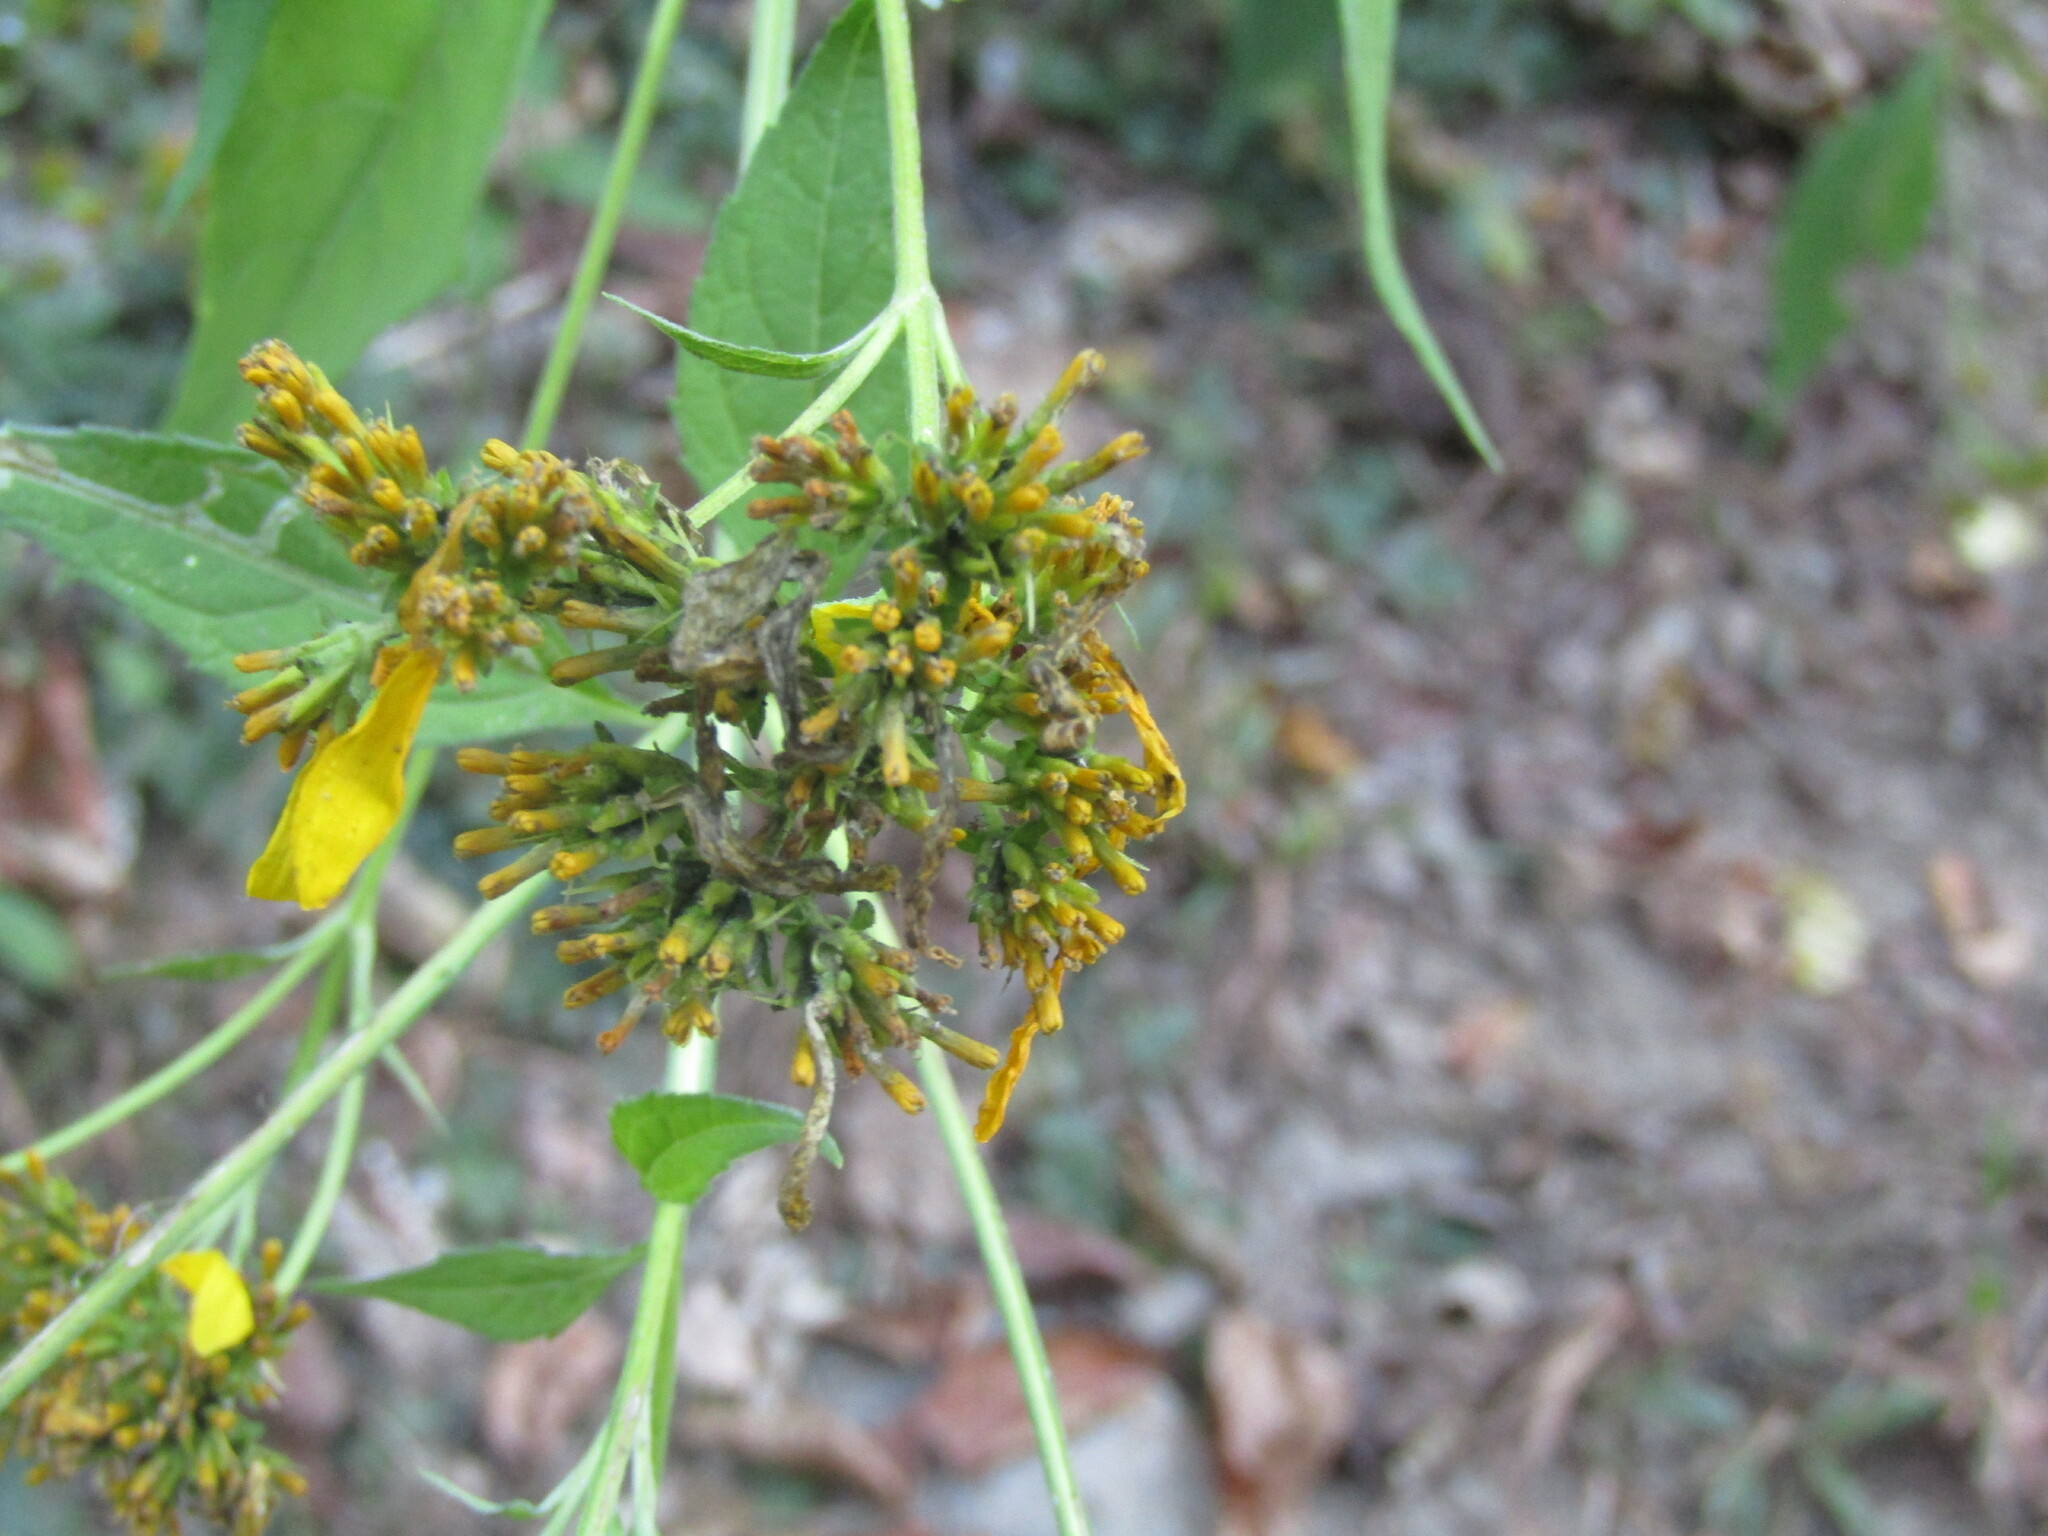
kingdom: Plantae
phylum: Tracheophyta
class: Magnoliopsida
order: Asterales
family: Asteraceae
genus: Verbesina
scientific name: Verbesina occidentalis
